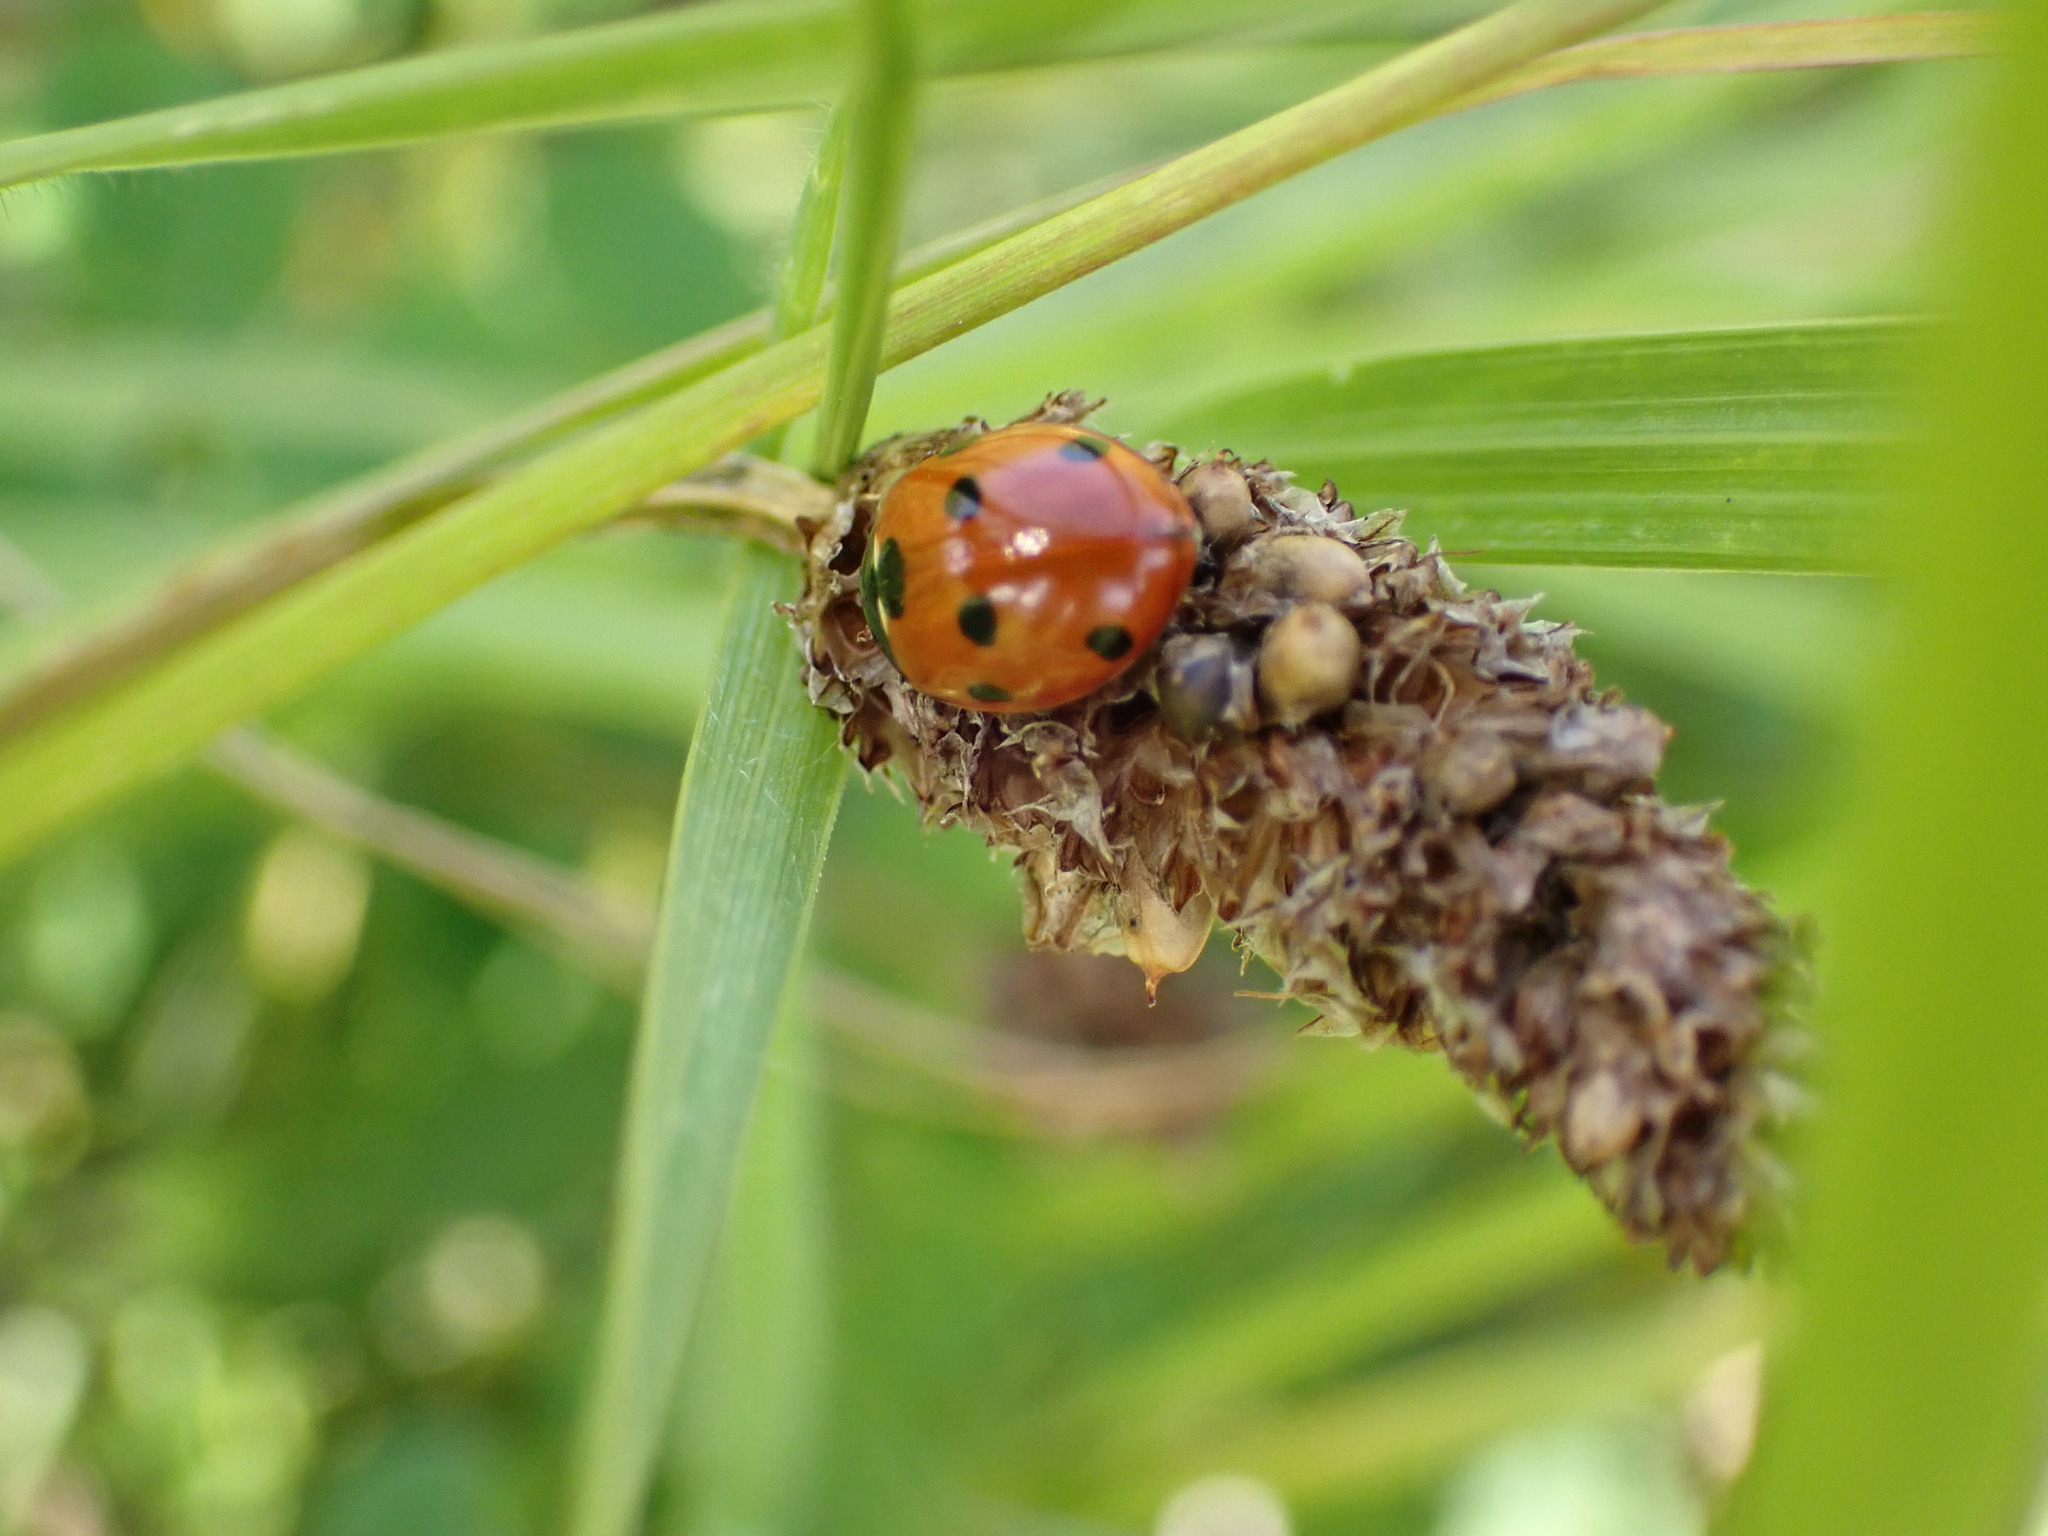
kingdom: Animalia
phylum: Arthropoda
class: Insecta
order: Coleoptera
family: Coccinellidae
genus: Coccinella
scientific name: Coccinella septempunctata
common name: Sevenspotted lady beetle
